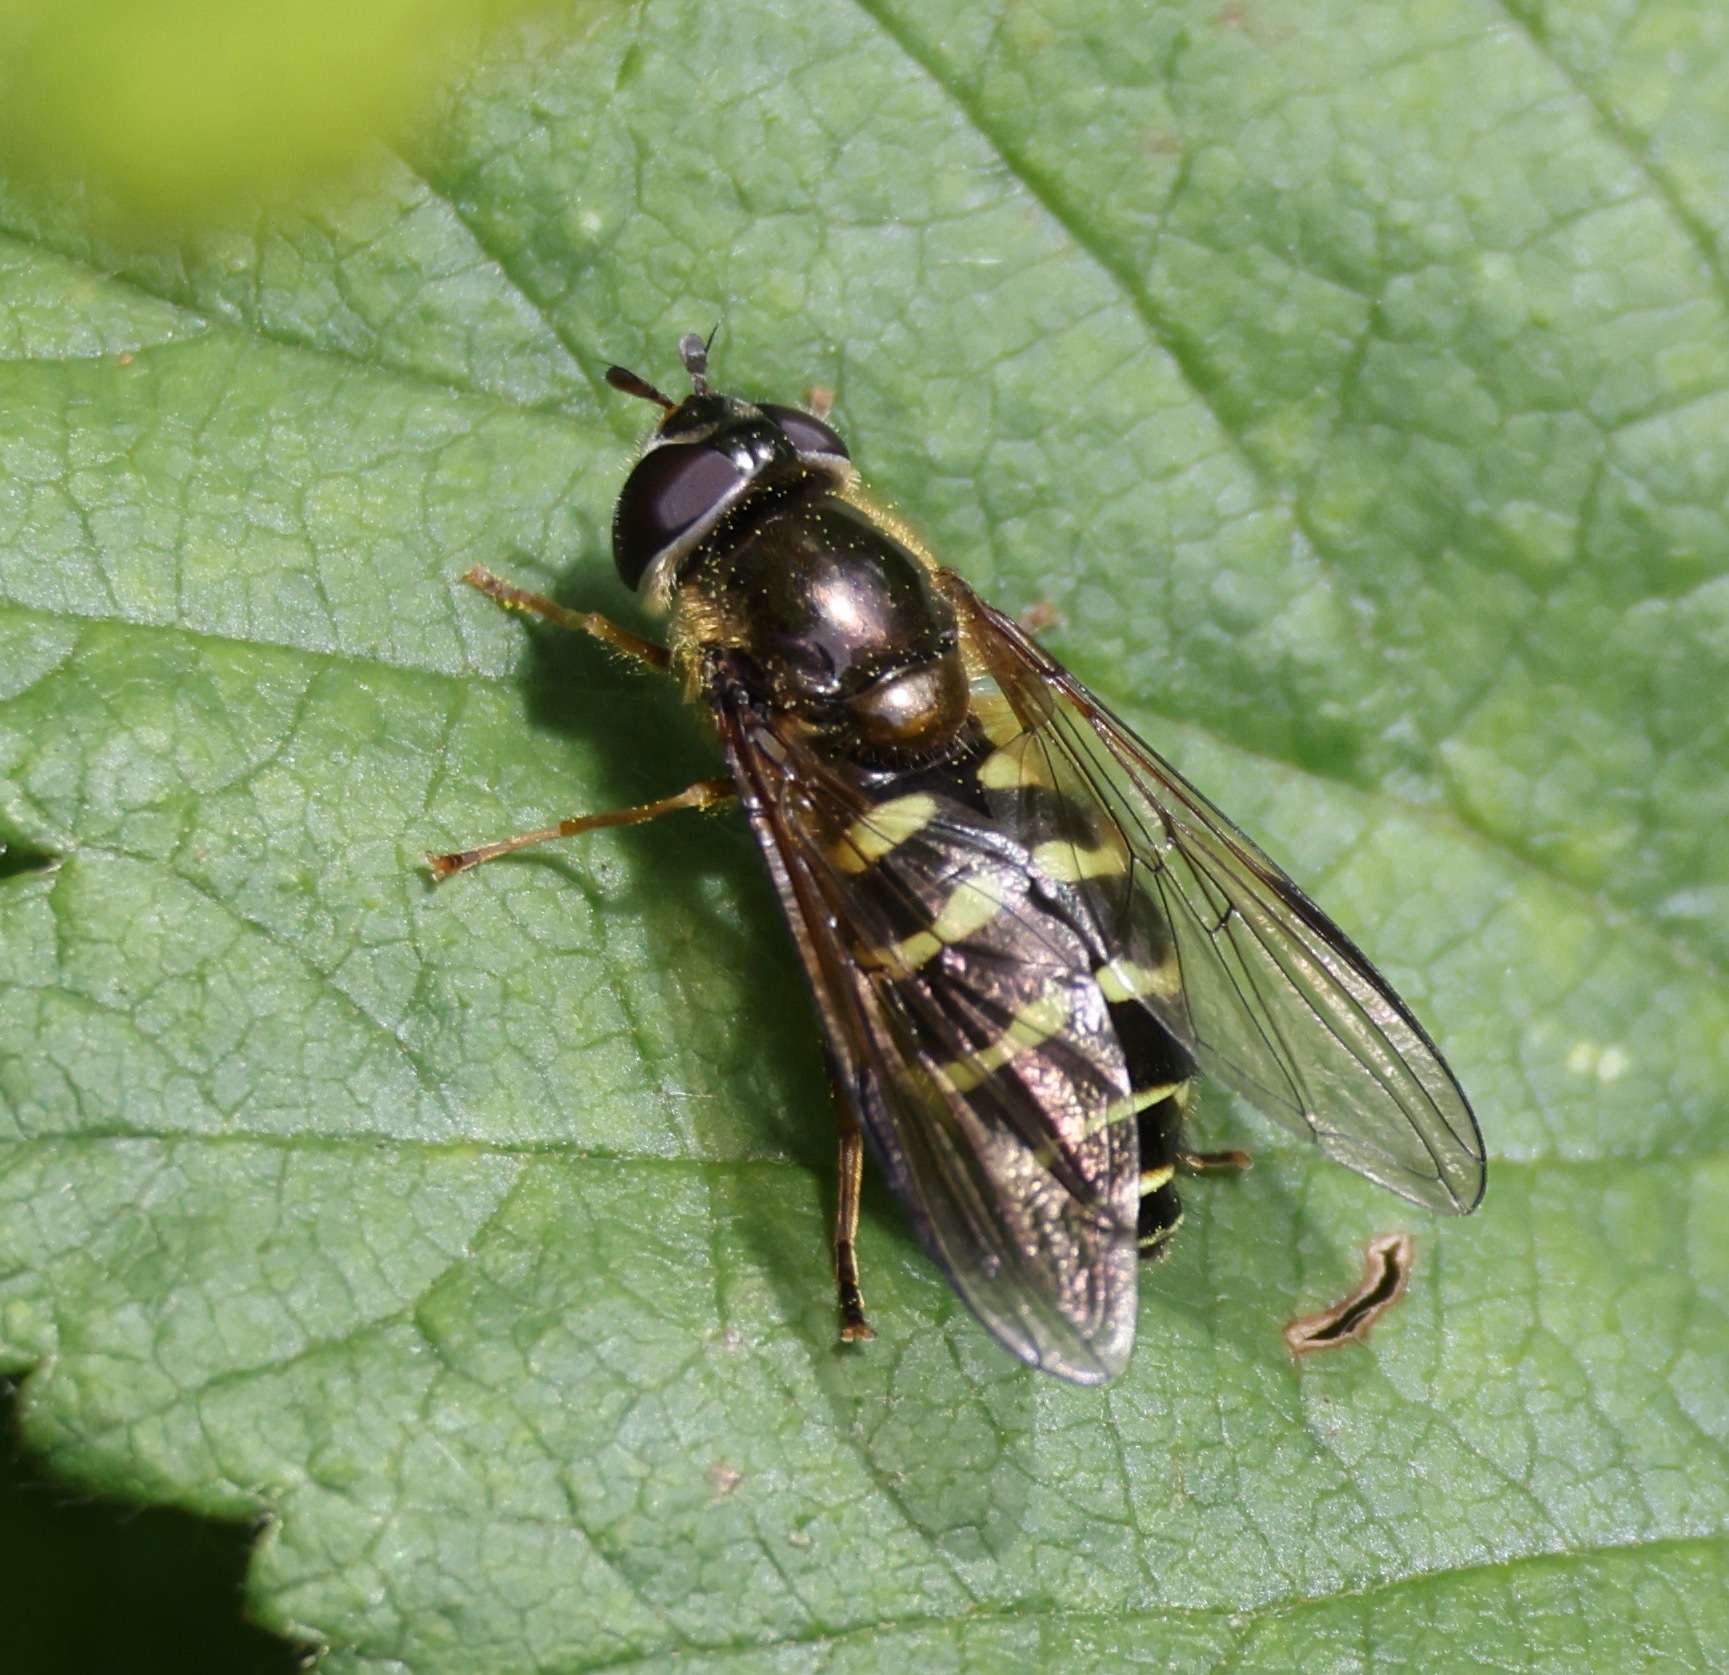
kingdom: Animalia
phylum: Arthropoda
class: Insecta
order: Diptera
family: Syrphidae
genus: Dasysyrphus
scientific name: Dasysyrphus
